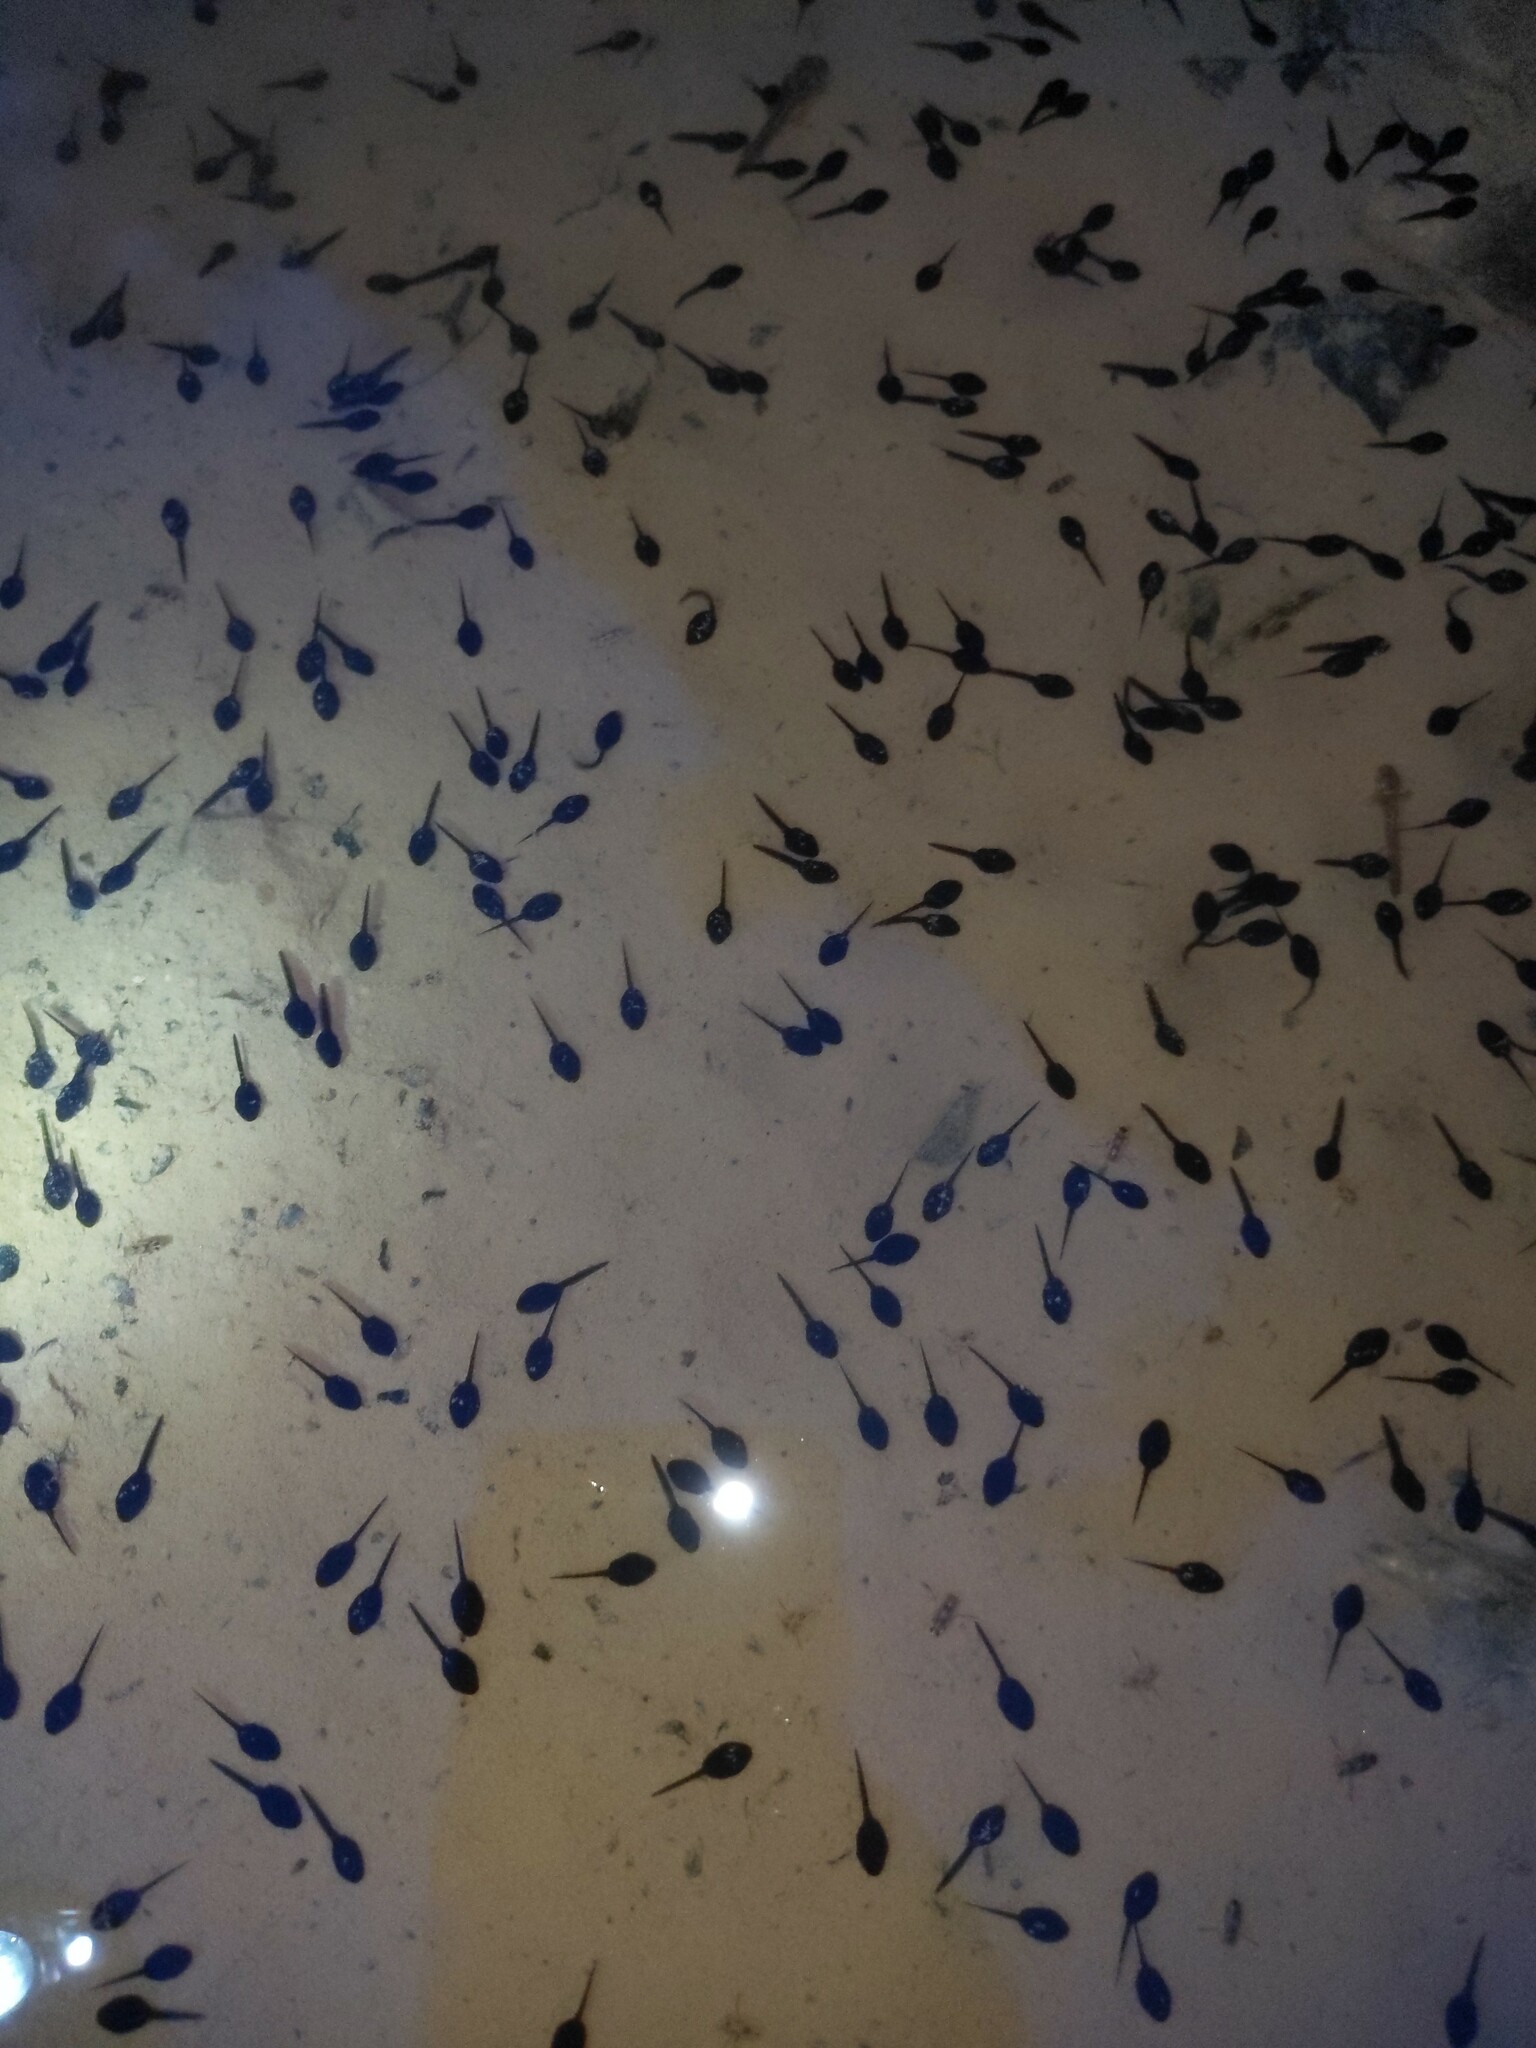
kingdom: Animalia
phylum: Chordata
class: Amphibia
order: Anura
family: Bufonidae
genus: Anaxyrus
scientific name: Anaxyrus americanus
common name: American toad
